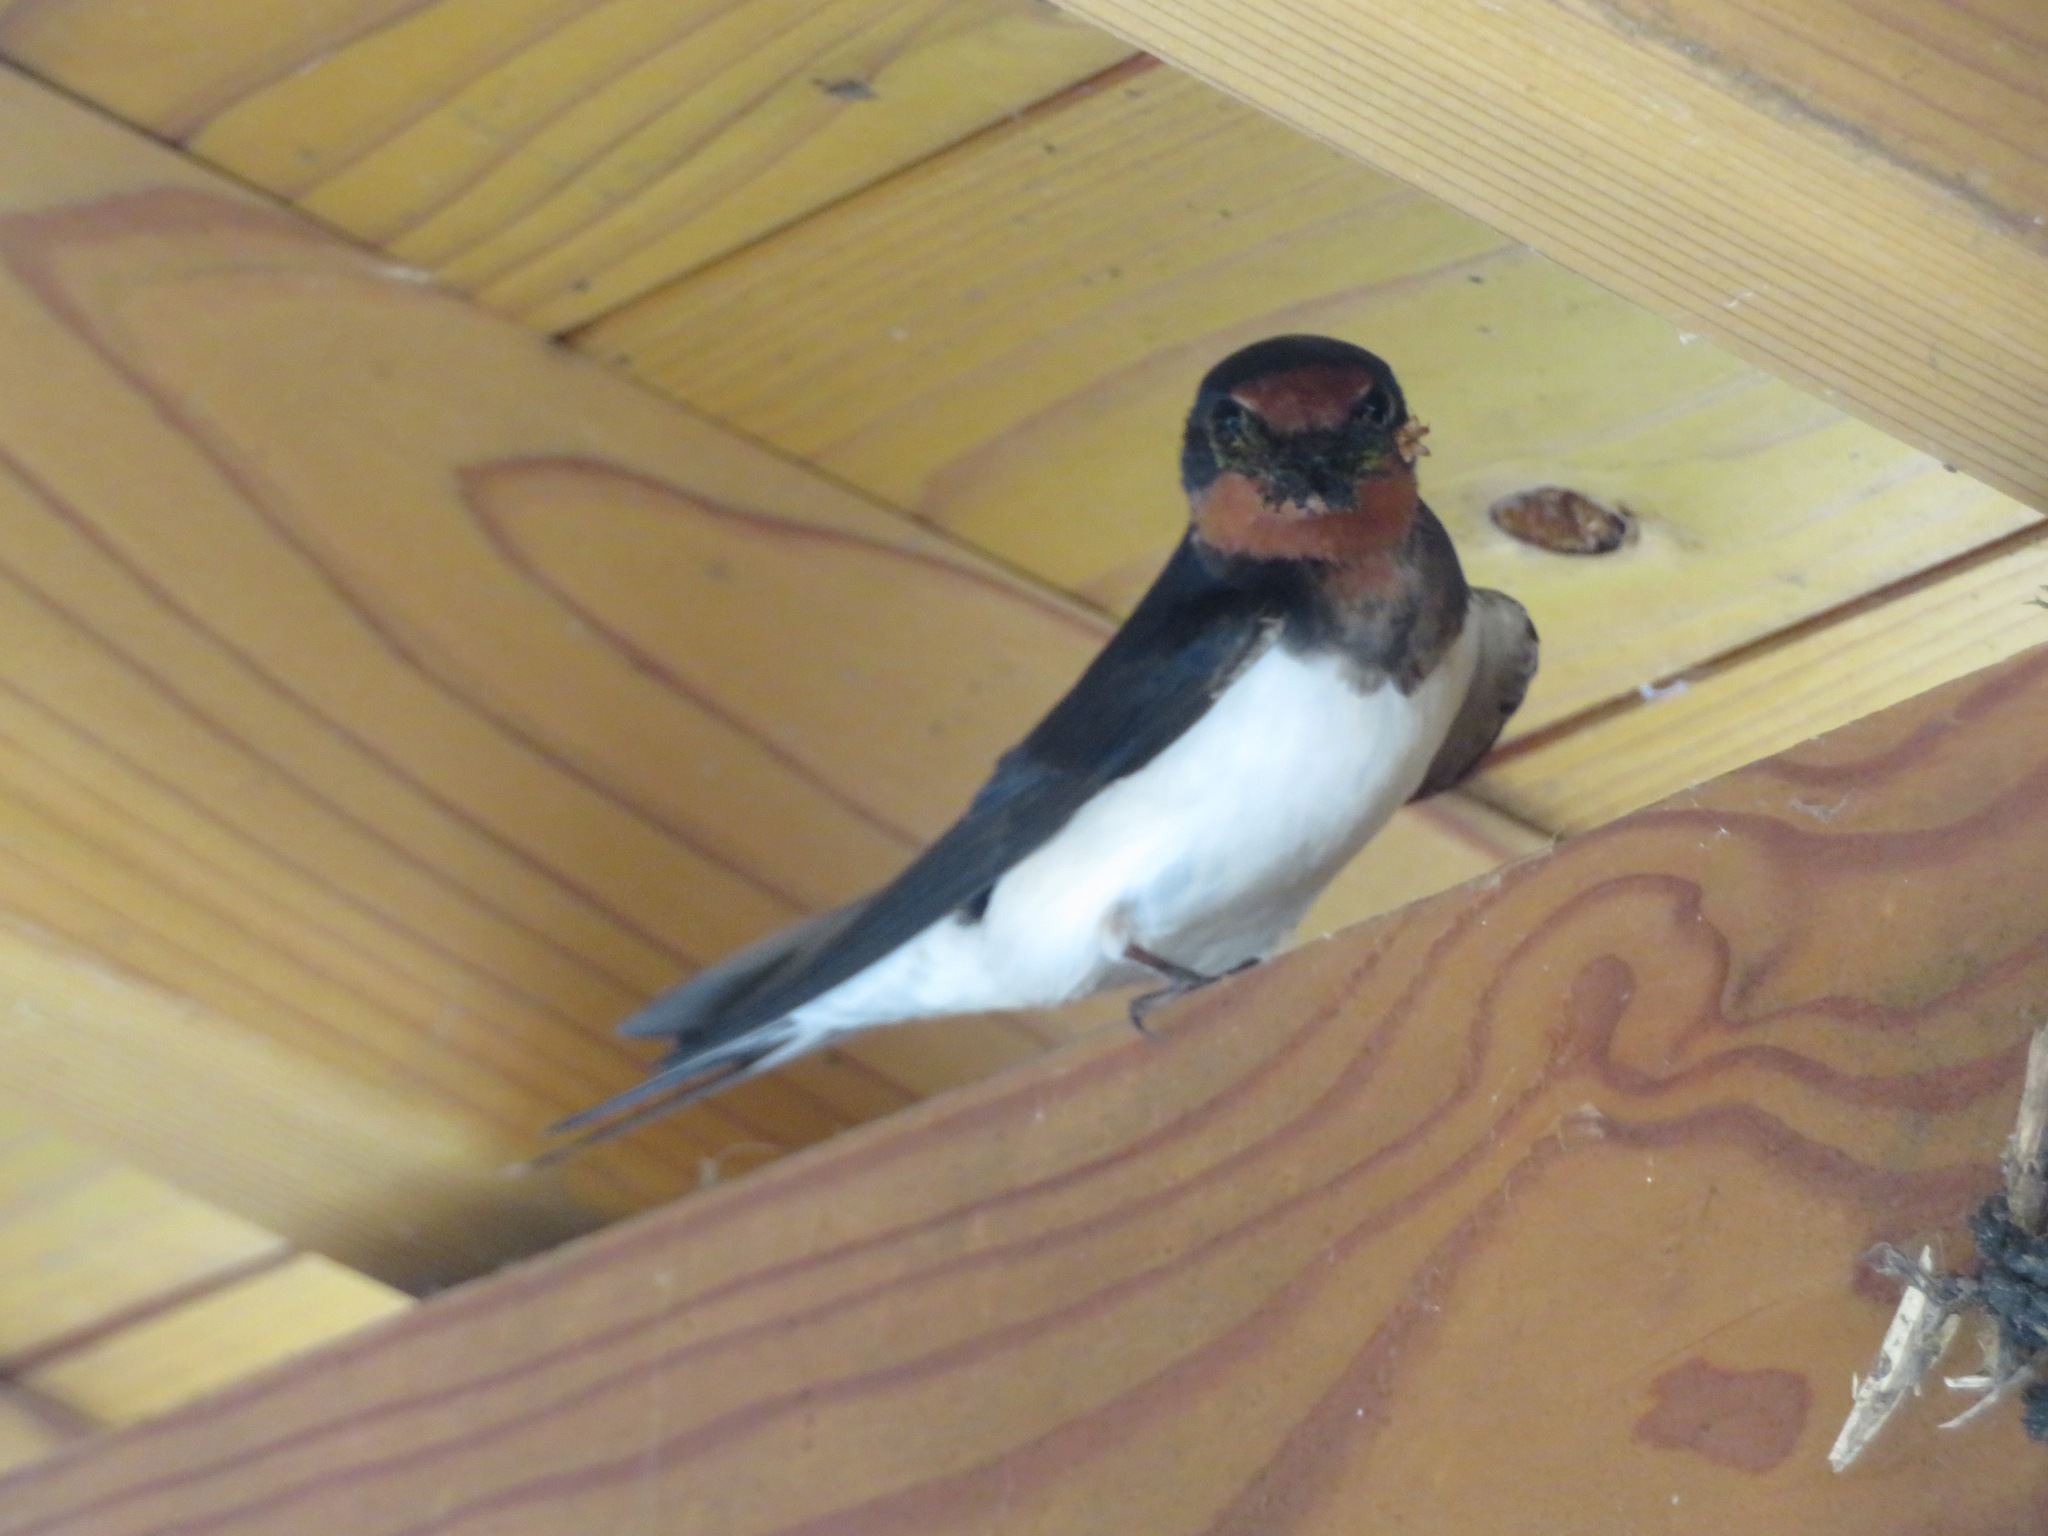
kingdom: Animalia
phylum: Chordata
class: Aves
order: Passeriformes
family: Hirundinidae
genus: Hirundo
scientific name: Hirundo rustica
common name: Barn swallow
